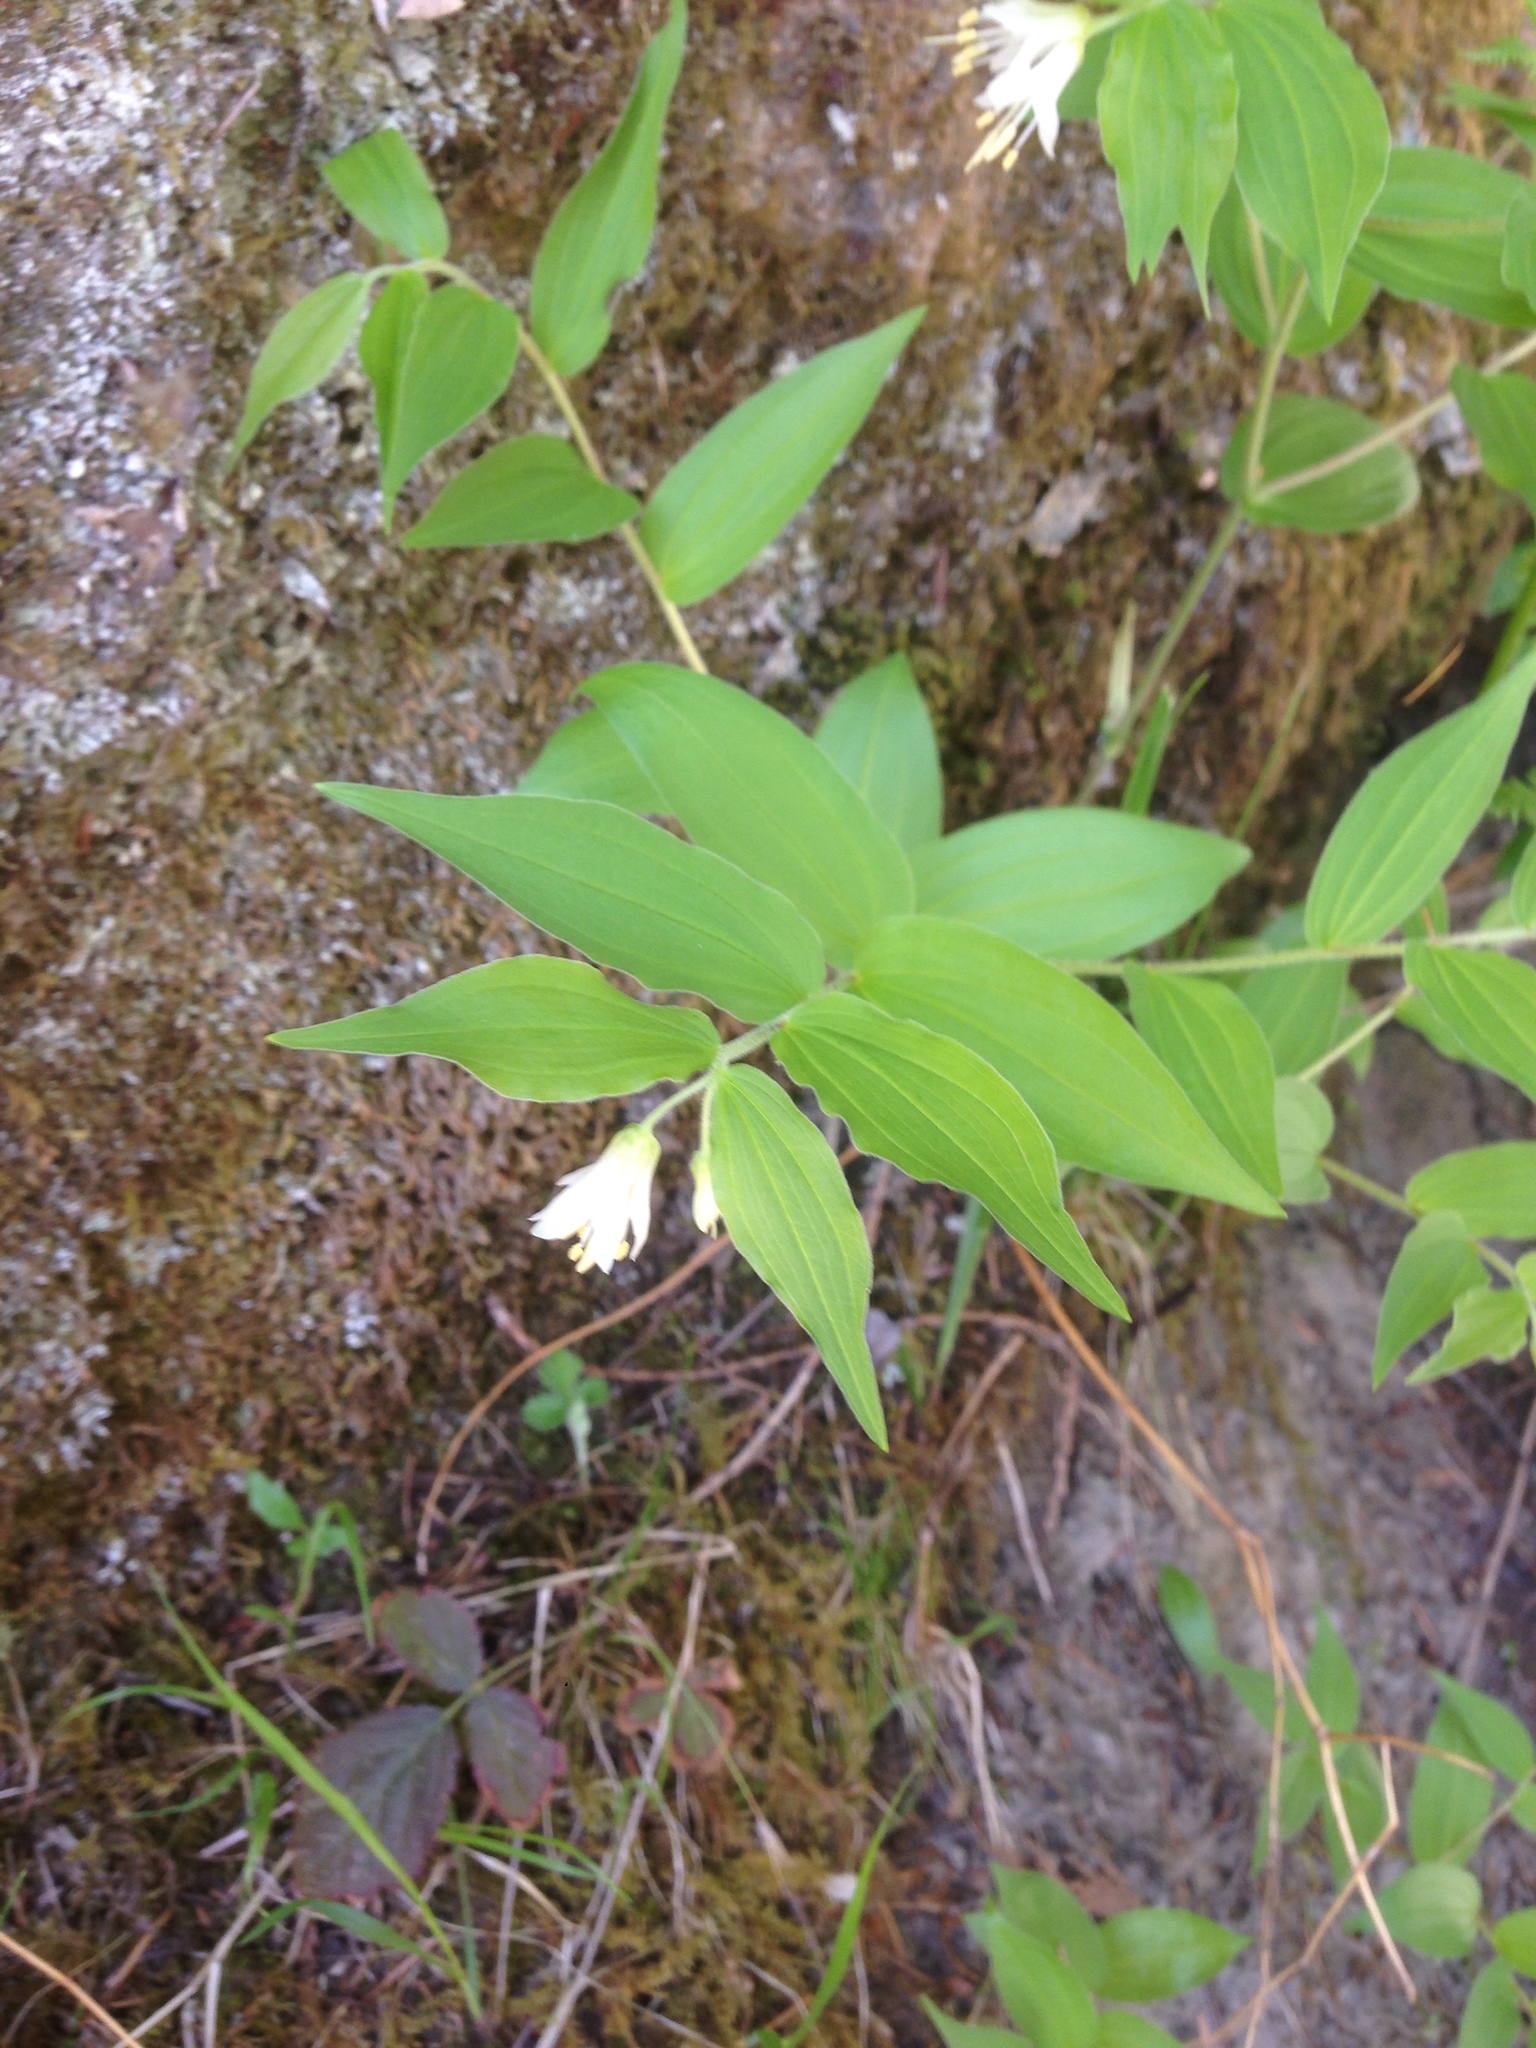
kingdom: Plantae
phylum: Tracheophyta
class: Liliopsida
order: Liliales
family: Liliaceae
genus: Prosartes
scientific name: Prosartes hookeri
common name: Fairy-bells
